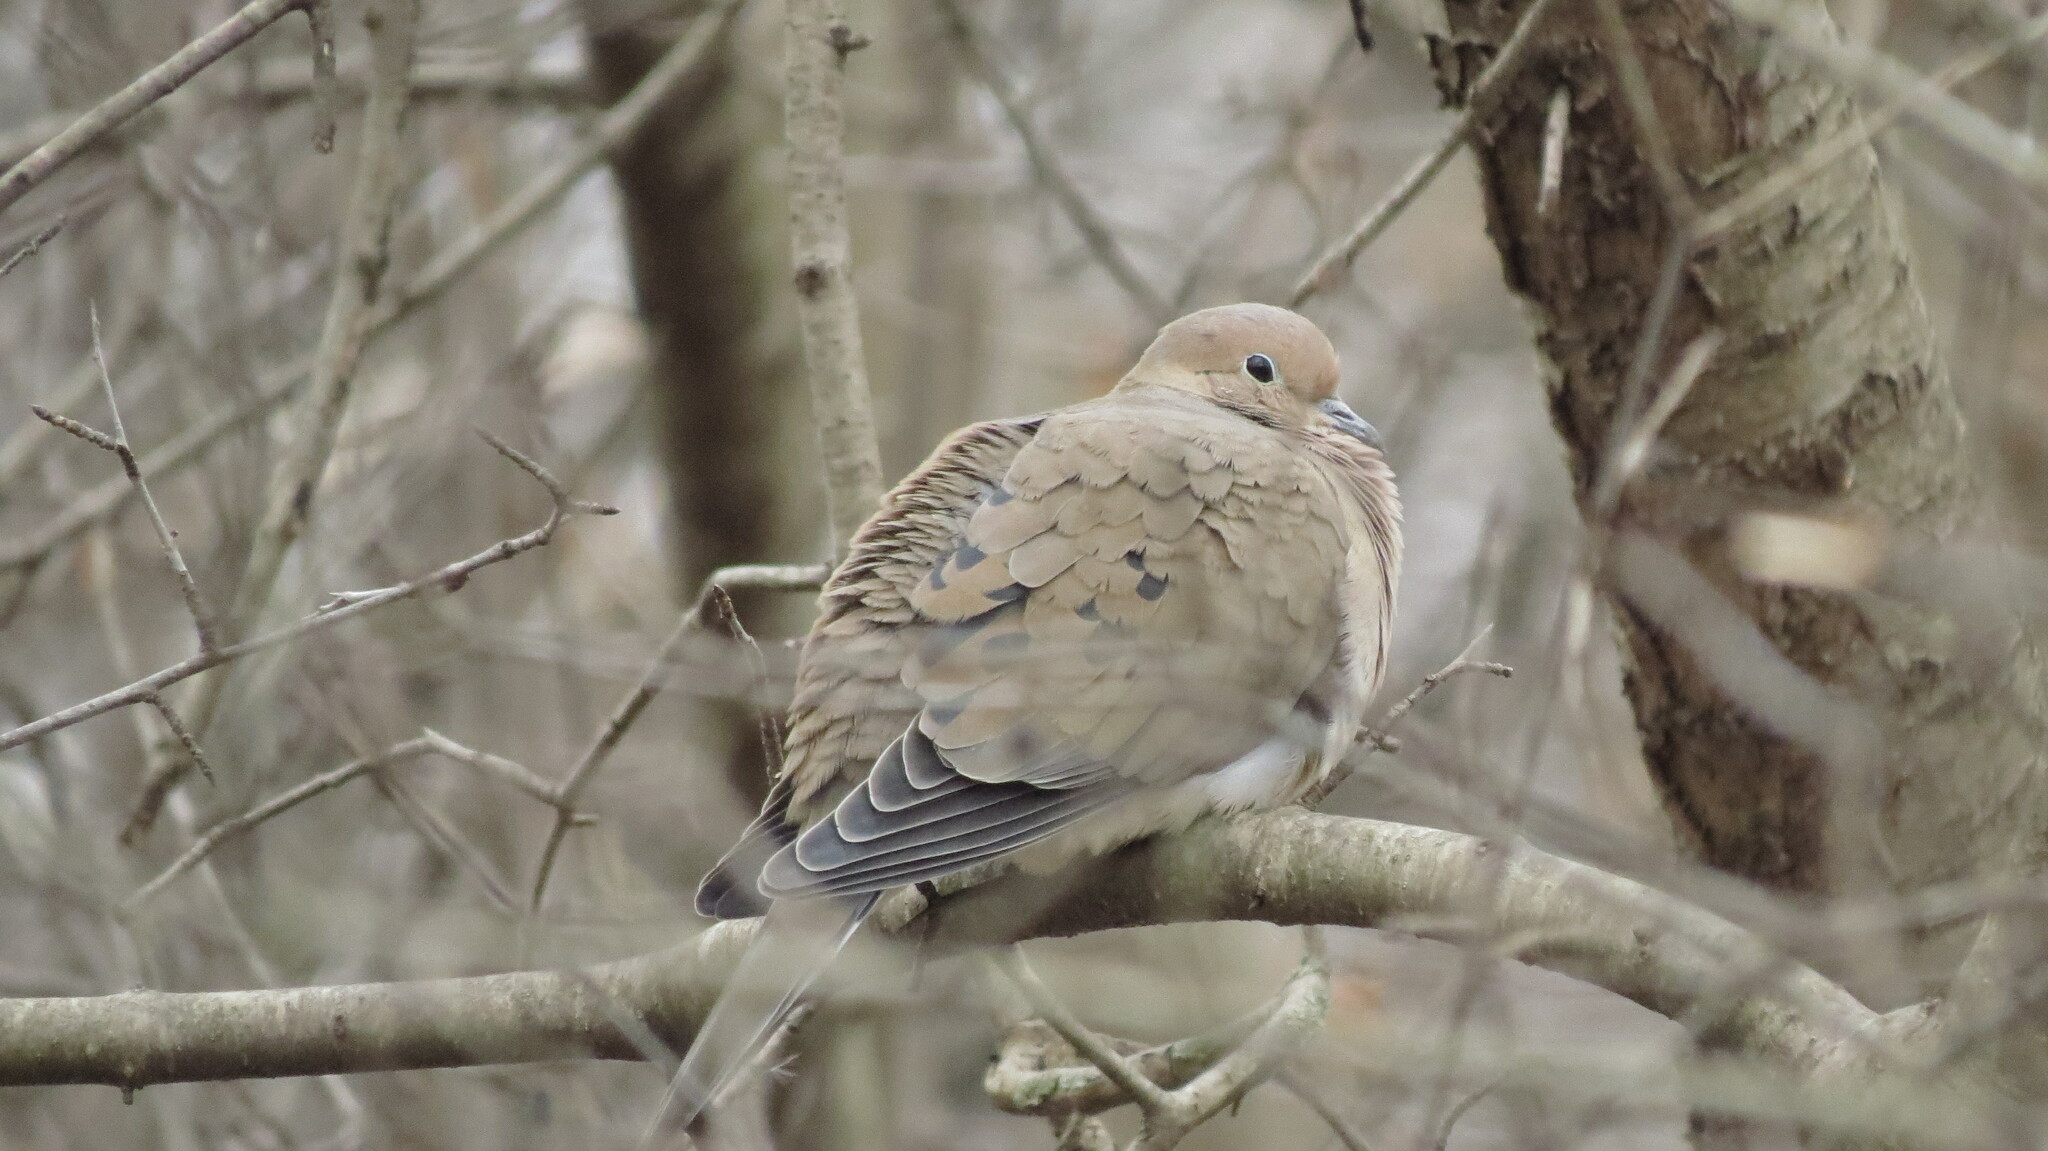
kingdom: Animalia
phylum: Chordata
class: Aves
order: Columbiformes
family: Columbidae
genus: Zenaida
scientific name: Zenaida macroura
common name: Mourning dove
